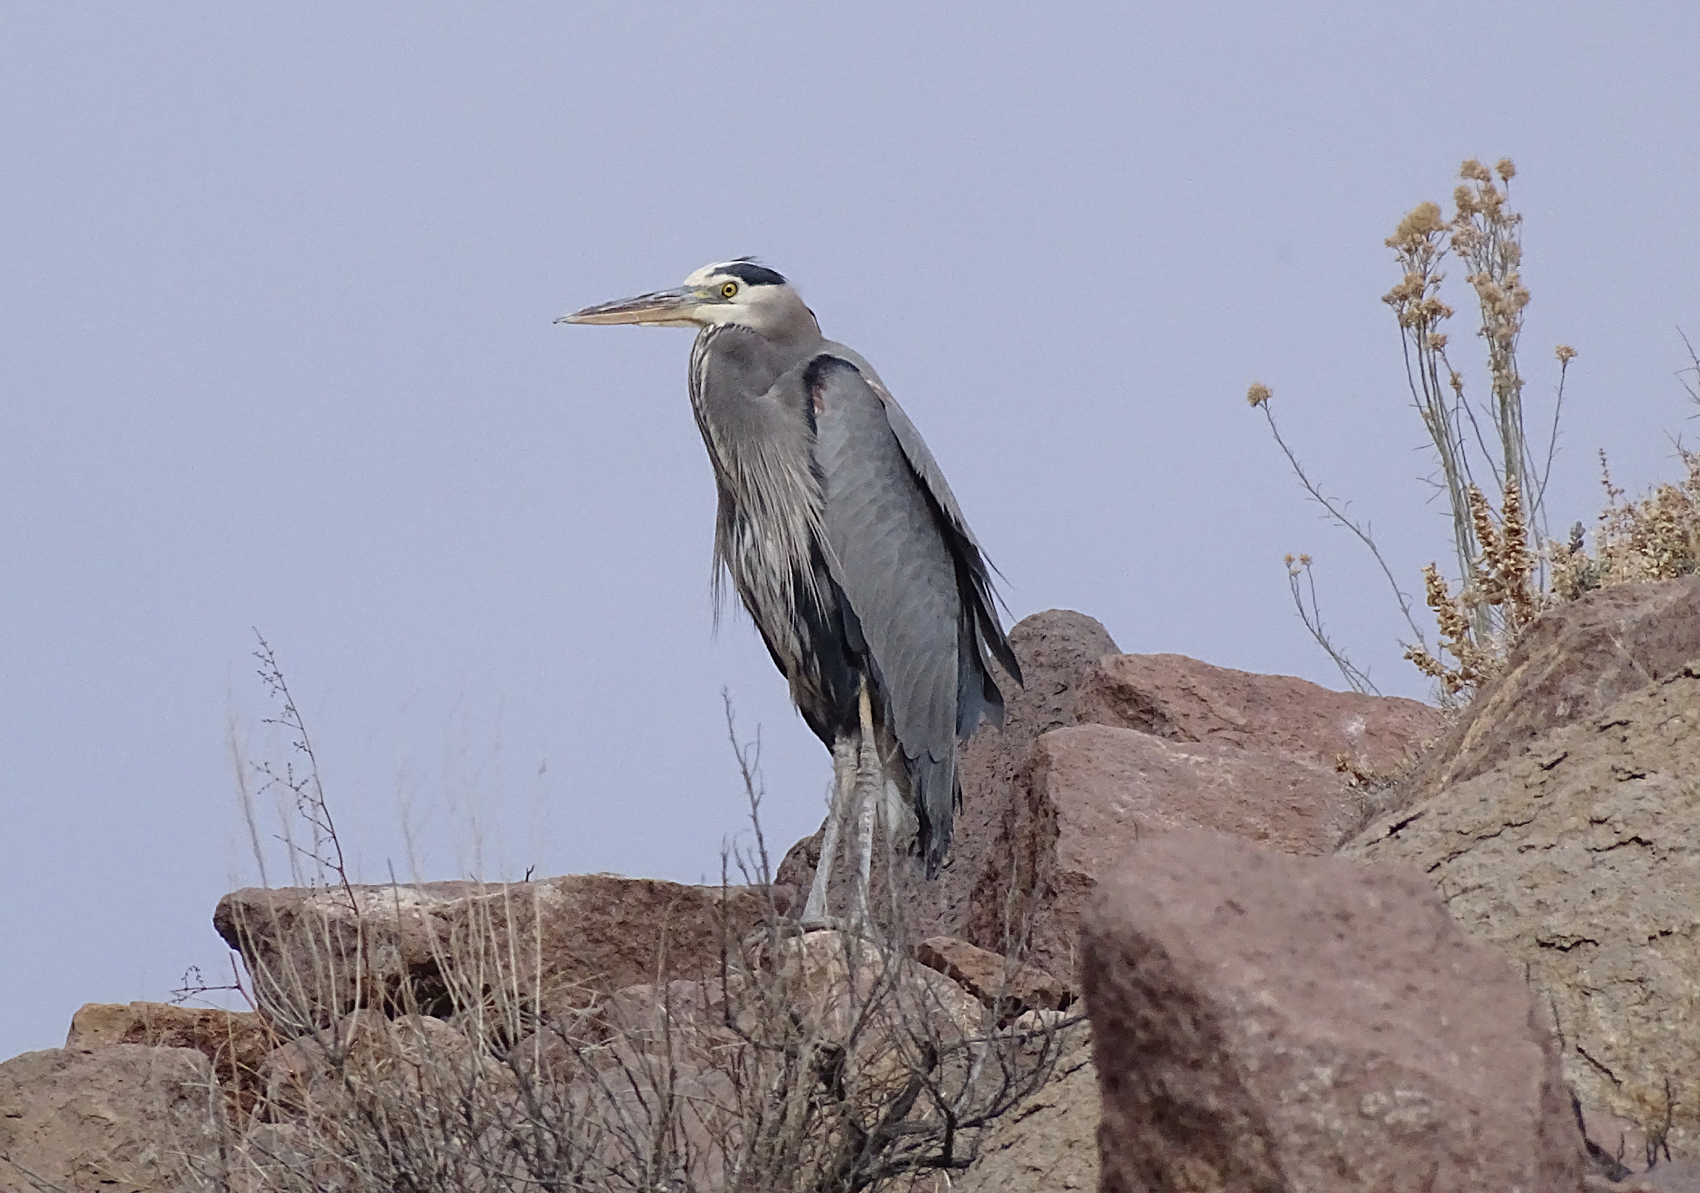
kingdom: Animalia
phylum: Chordata
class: Aves
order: Pelecaniformes
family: Ardeidae
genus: Ardea
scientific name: Ardea herodias
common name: Great blue heron
